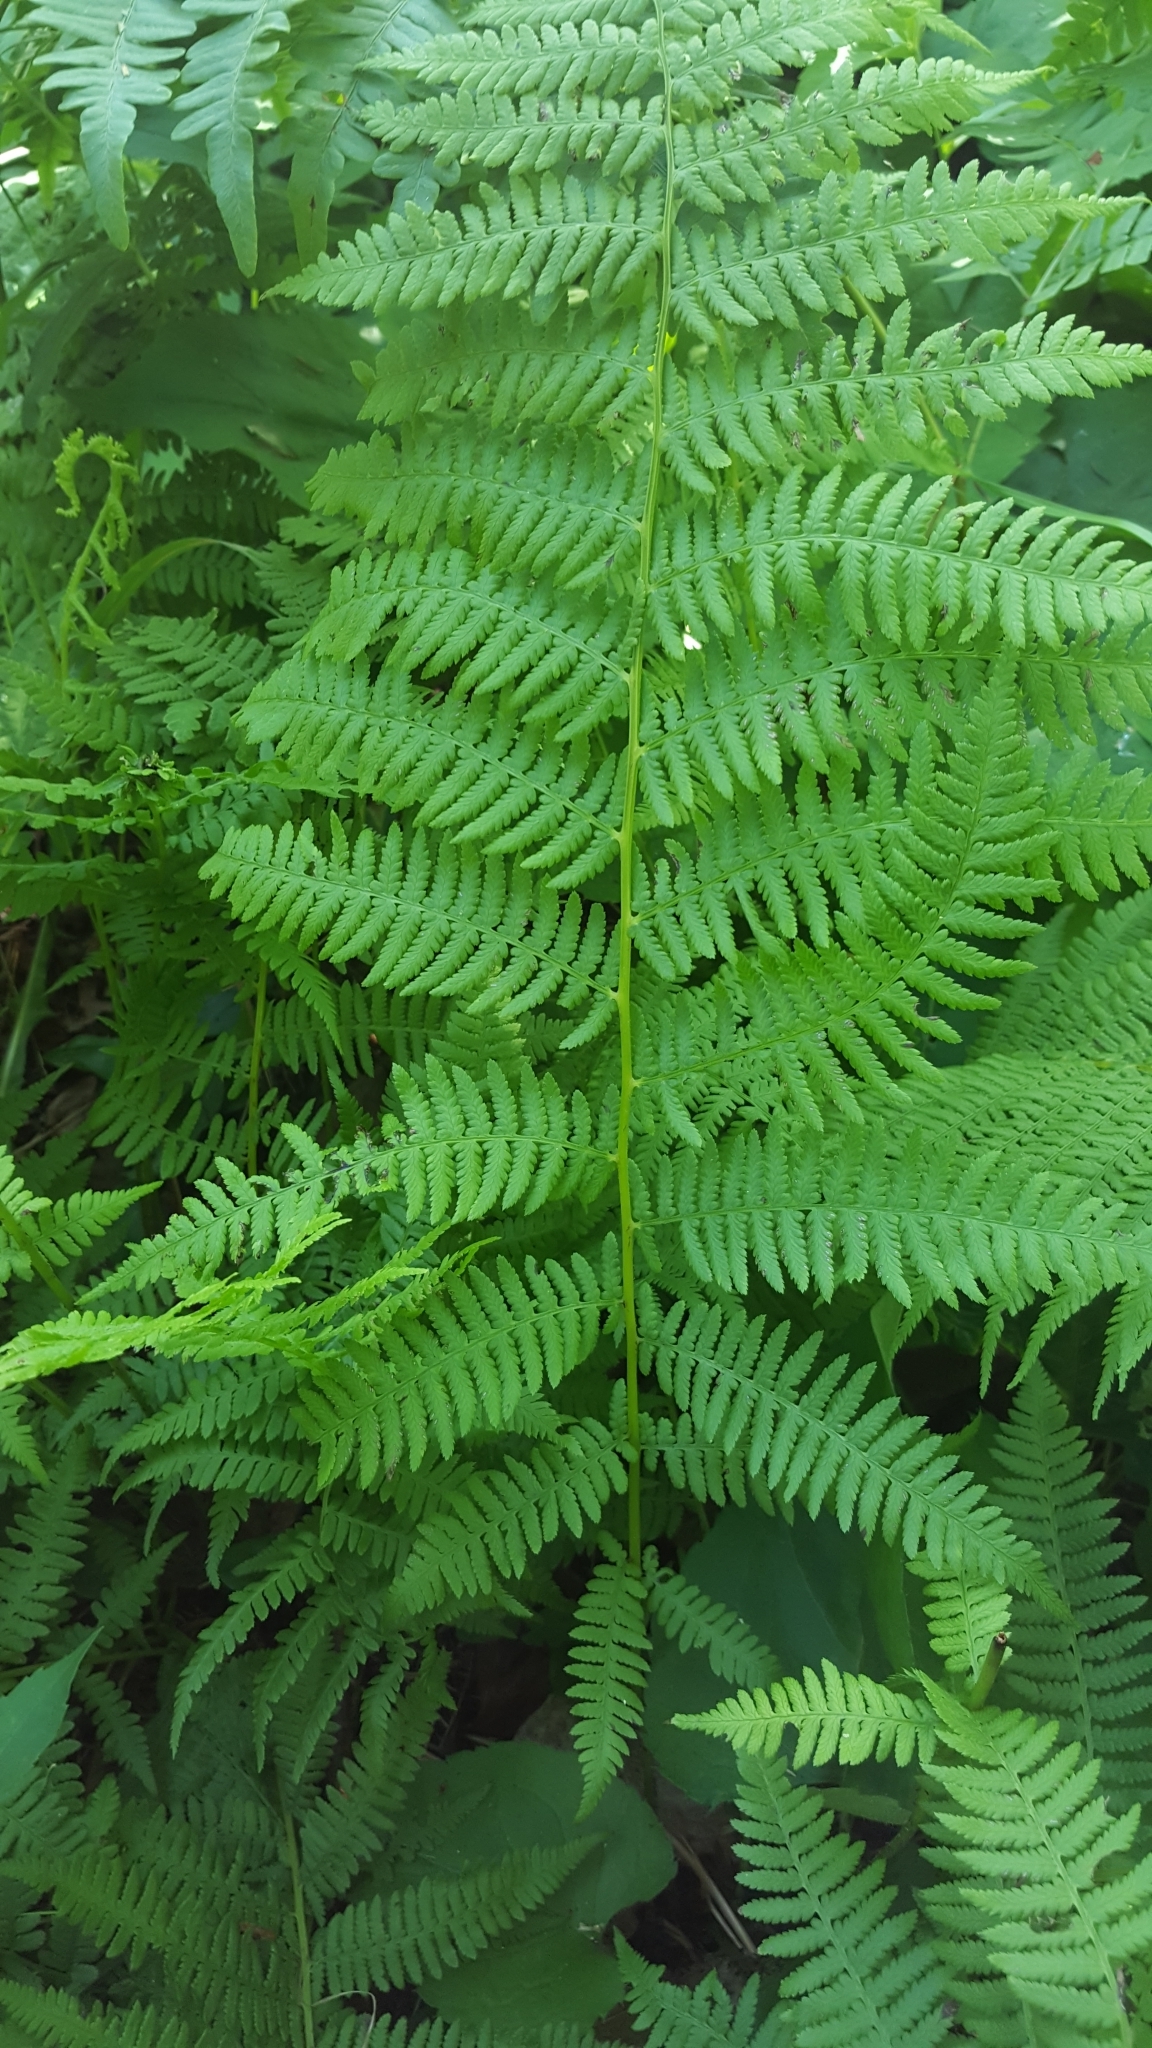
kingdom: Plantae
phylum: Tracheophyta
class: Polypodiopsida
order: Polypodiales
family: Athyriaceae
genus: Athyrium
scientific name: Athyrium angustum
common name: Northern lady fern
